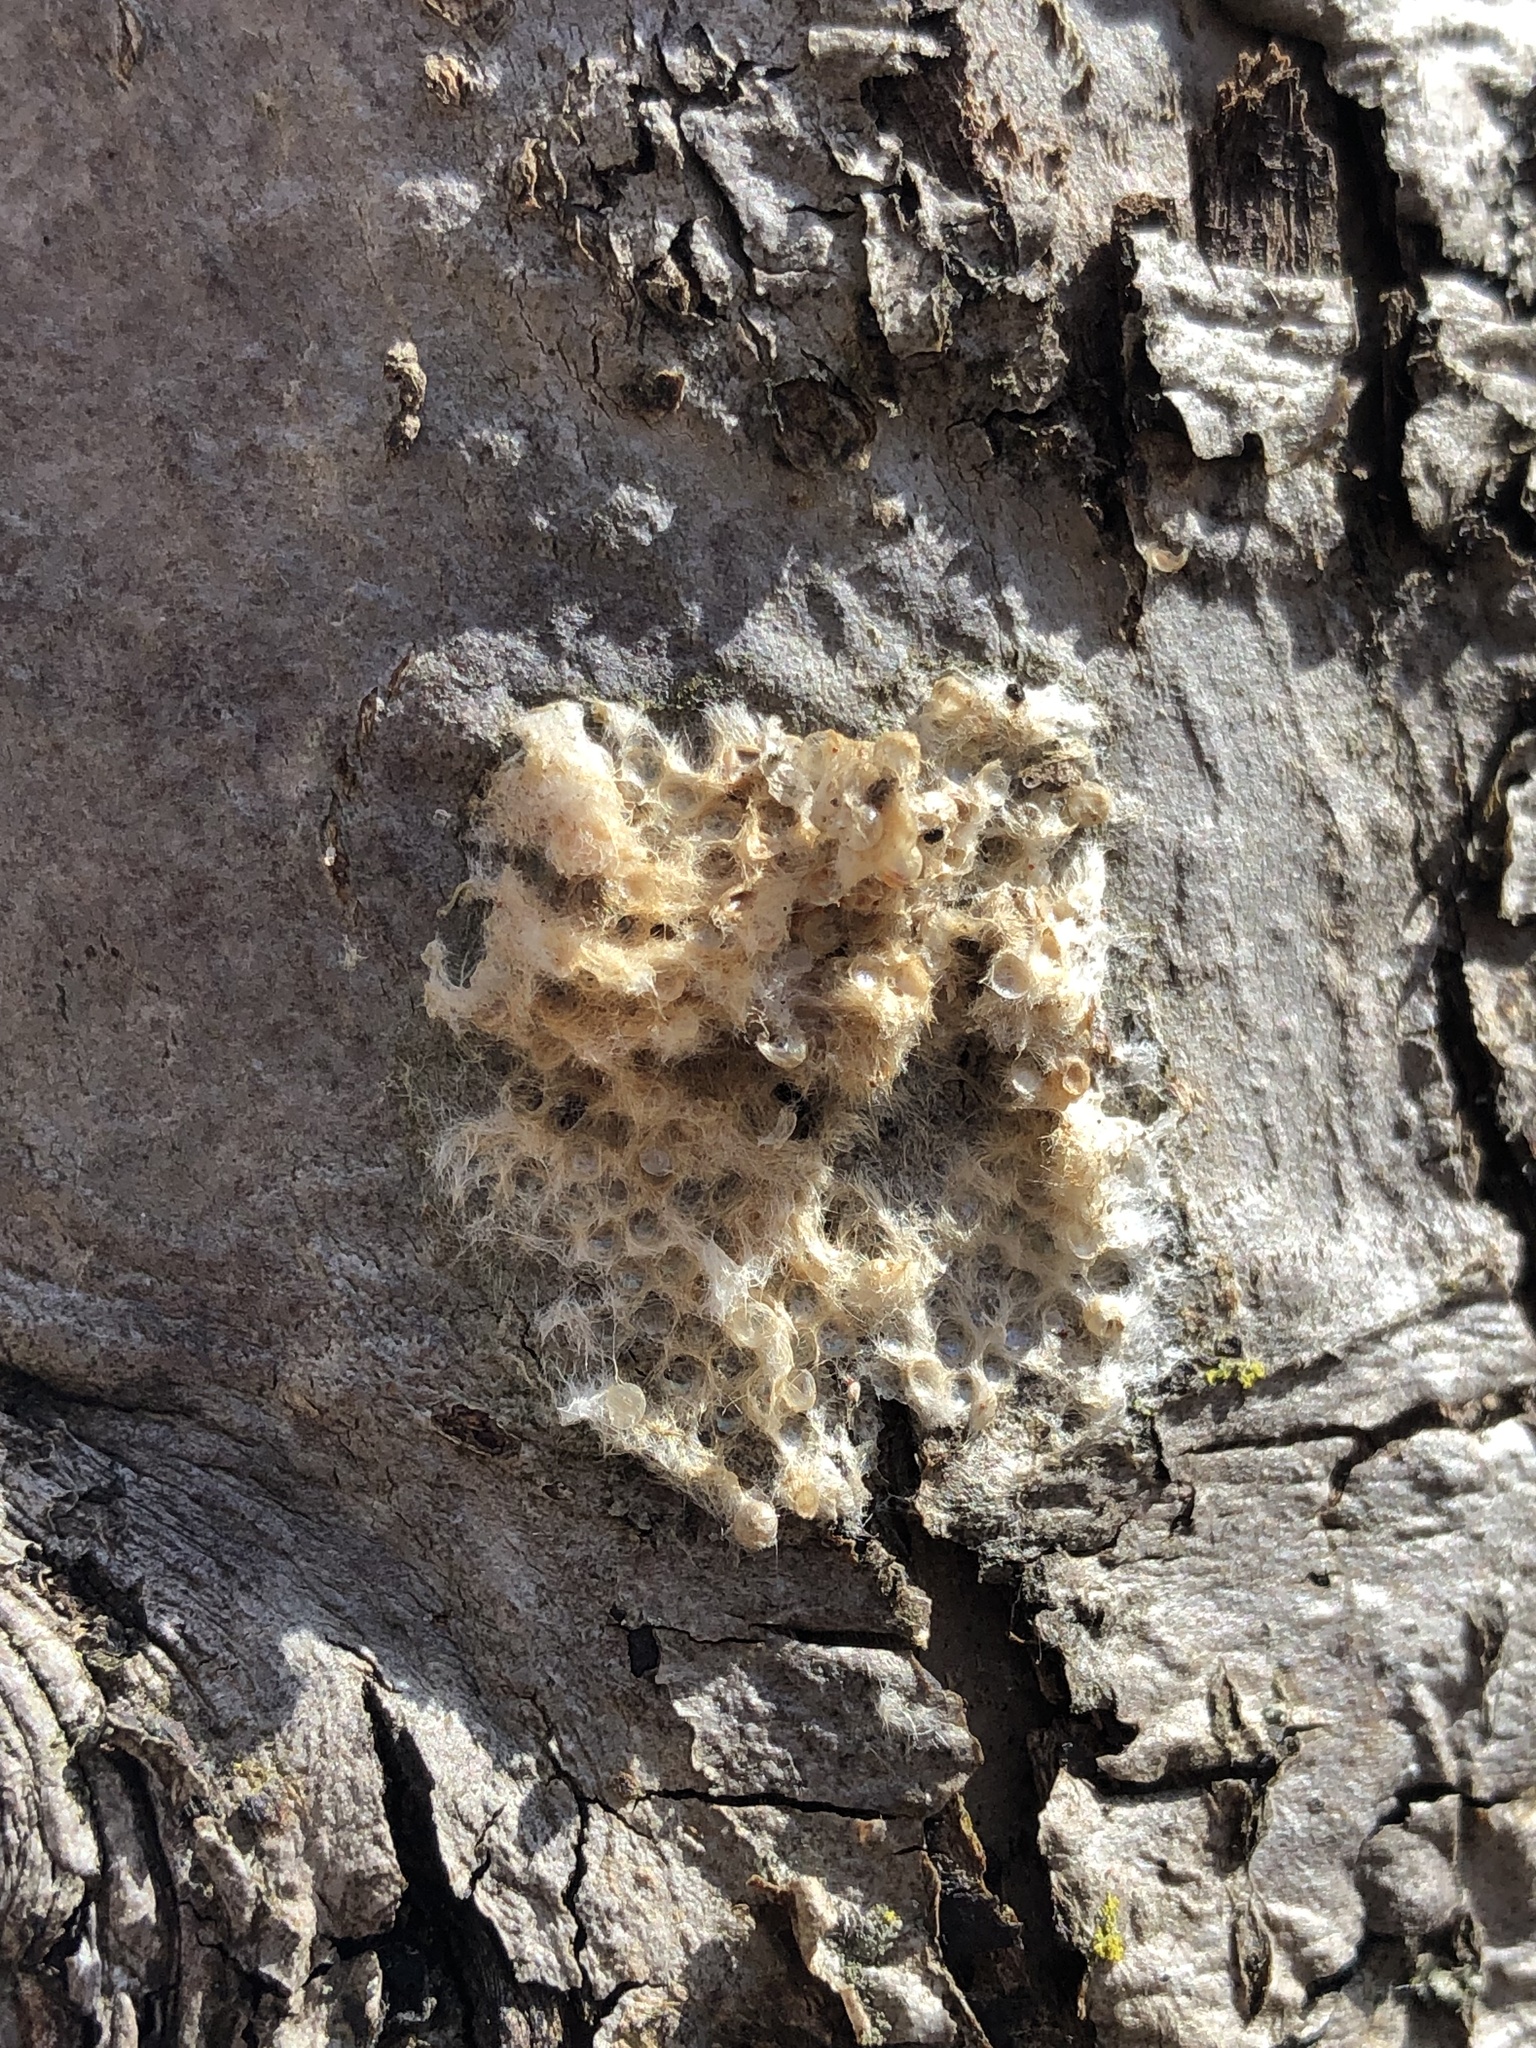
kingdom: Animalia
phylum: Arthropoda
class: Insecta
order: Lepidoptera
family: Erebidae
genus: Lymantria
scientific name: Lymantria dispar
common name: Gypsy moth
